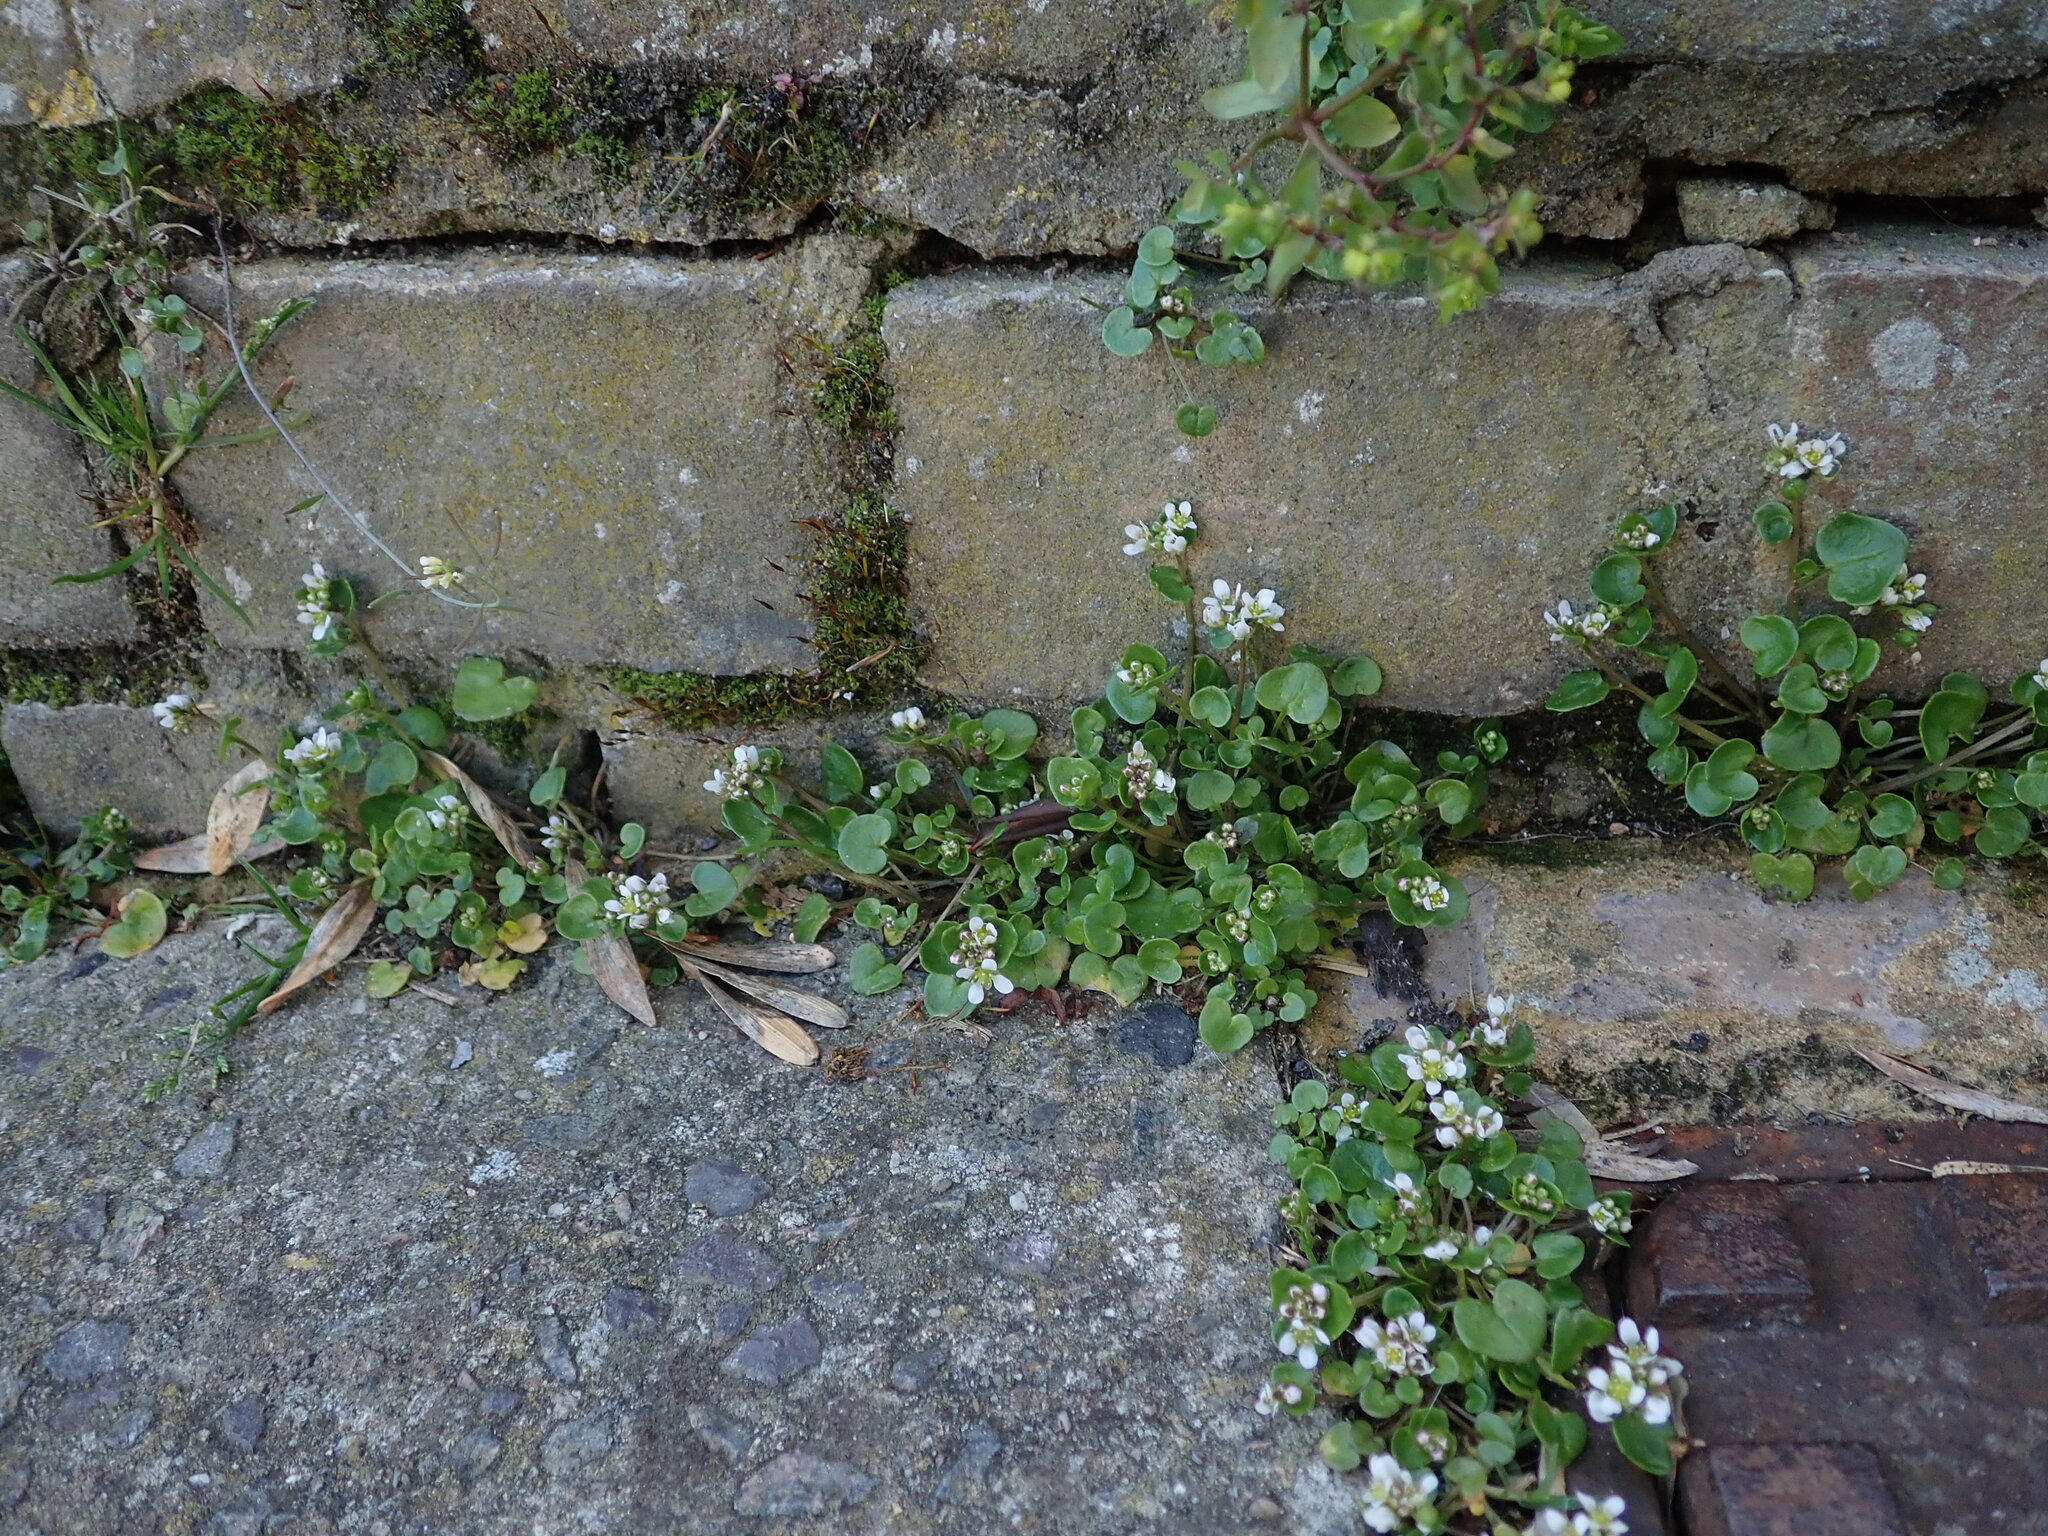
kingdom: Plantae
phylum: Tracheophyta
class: Magnoliopsida
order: Brassicales
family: Brassicaceae
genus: Cochlearia
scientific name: Cochlearia danica
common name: Early scurvygrass
